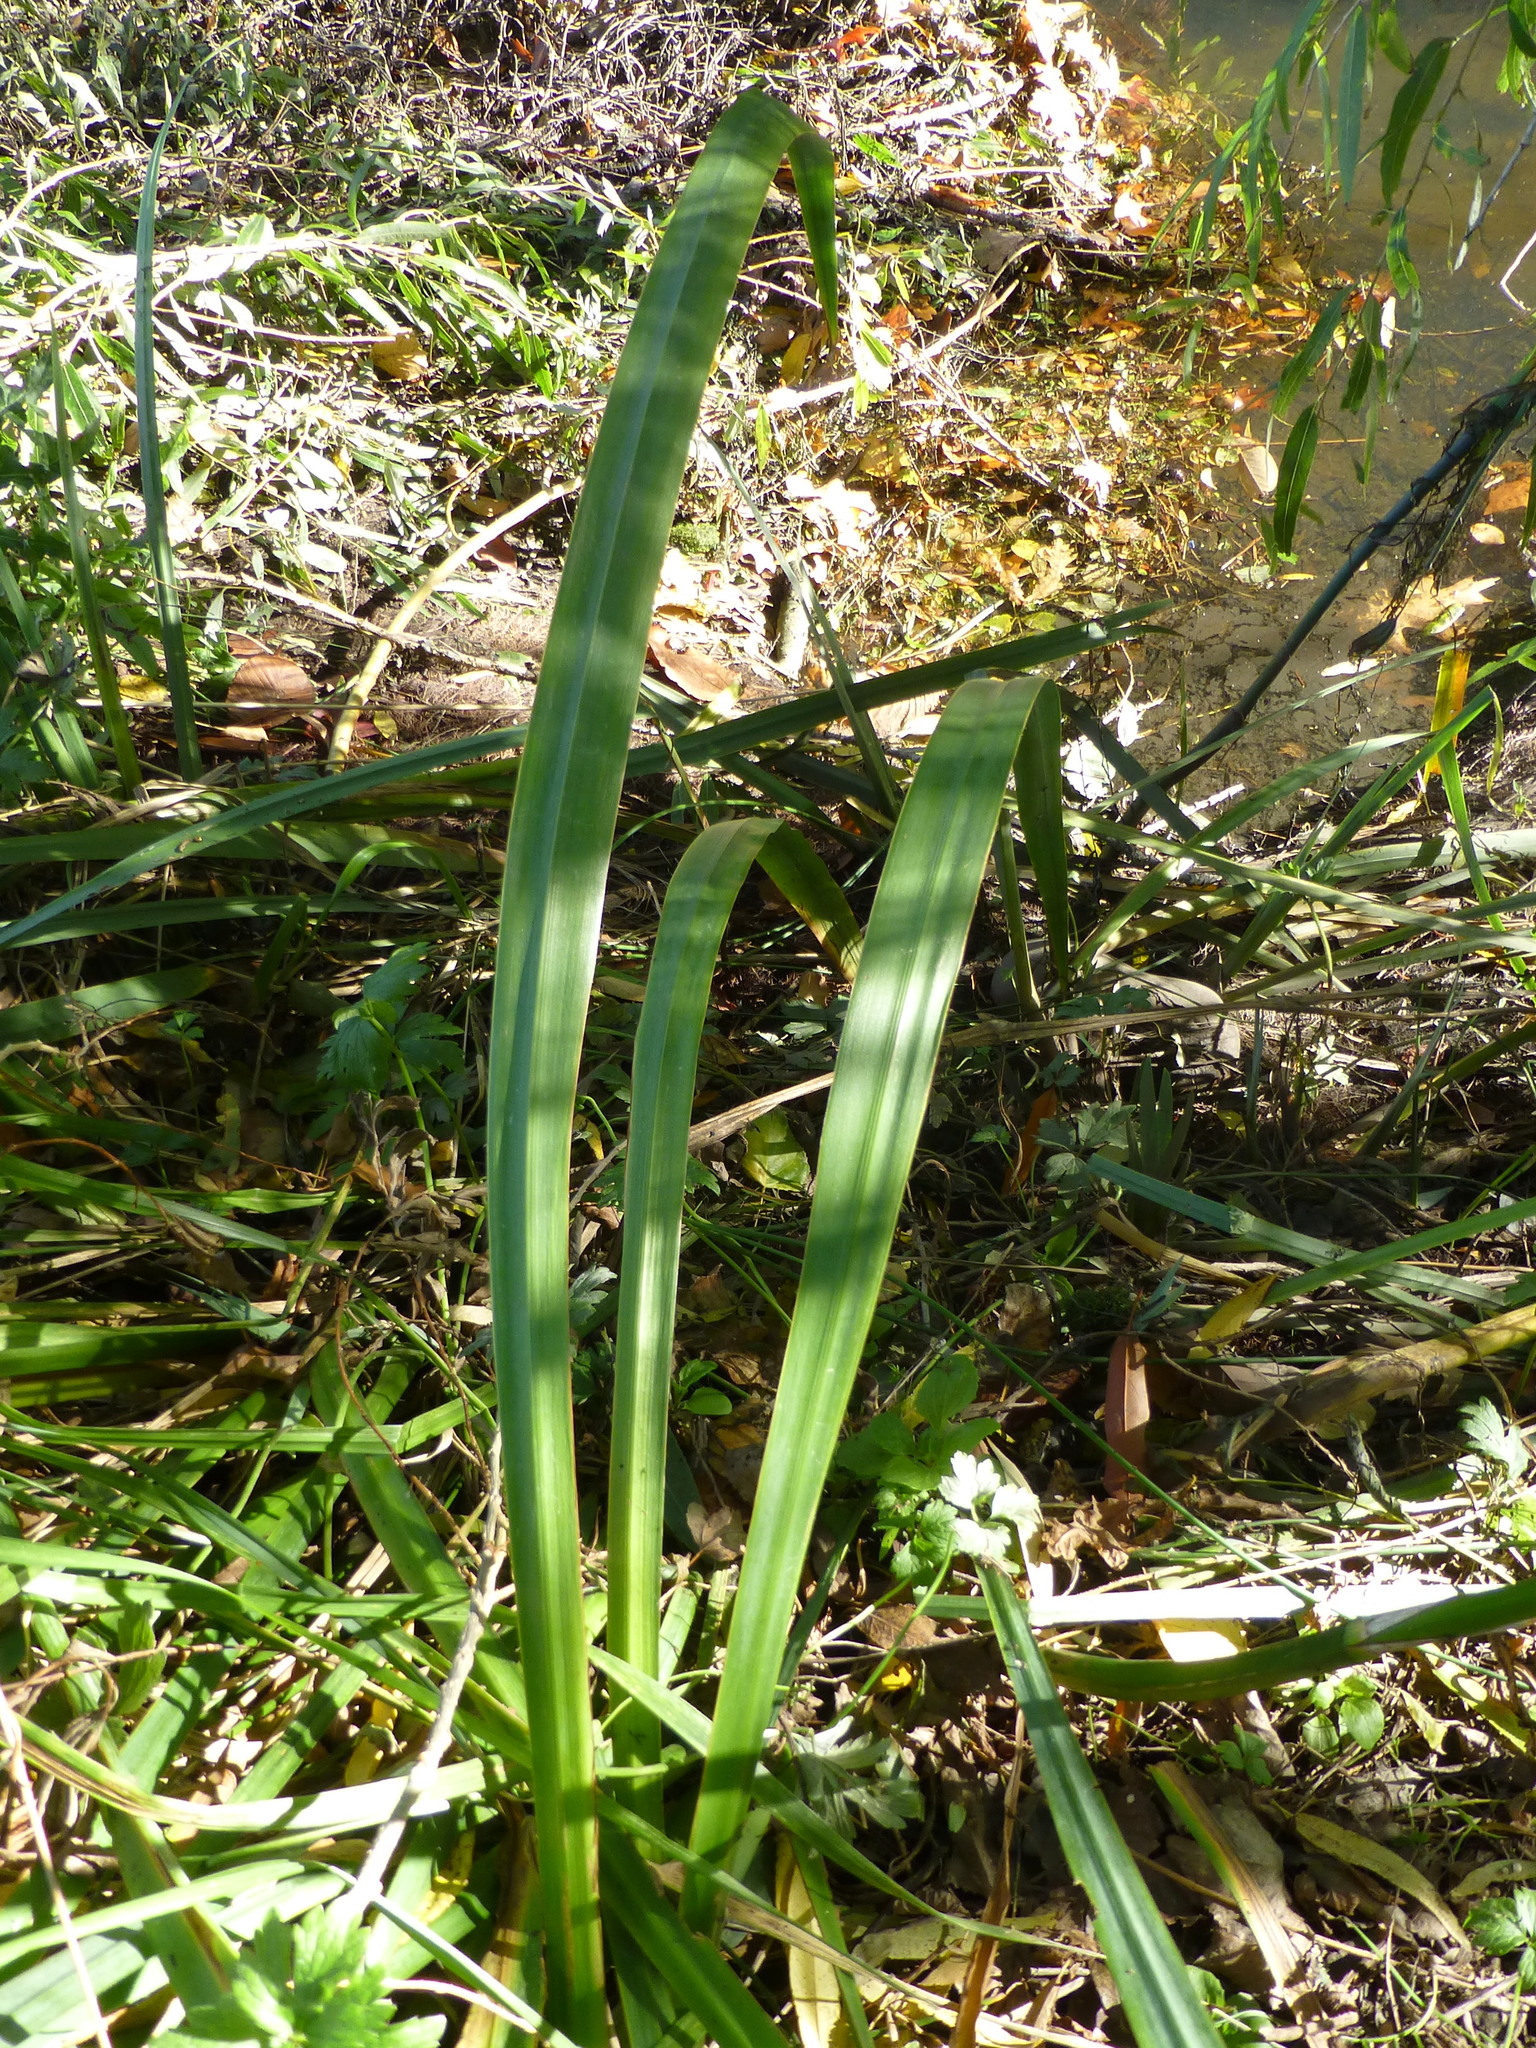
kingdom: Plantae
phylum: Tracheophyta
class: Liliopsida
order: Asparagales
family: Iridaceae
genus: Iris
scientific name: Iris pseudacorus
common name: Yellow flag
